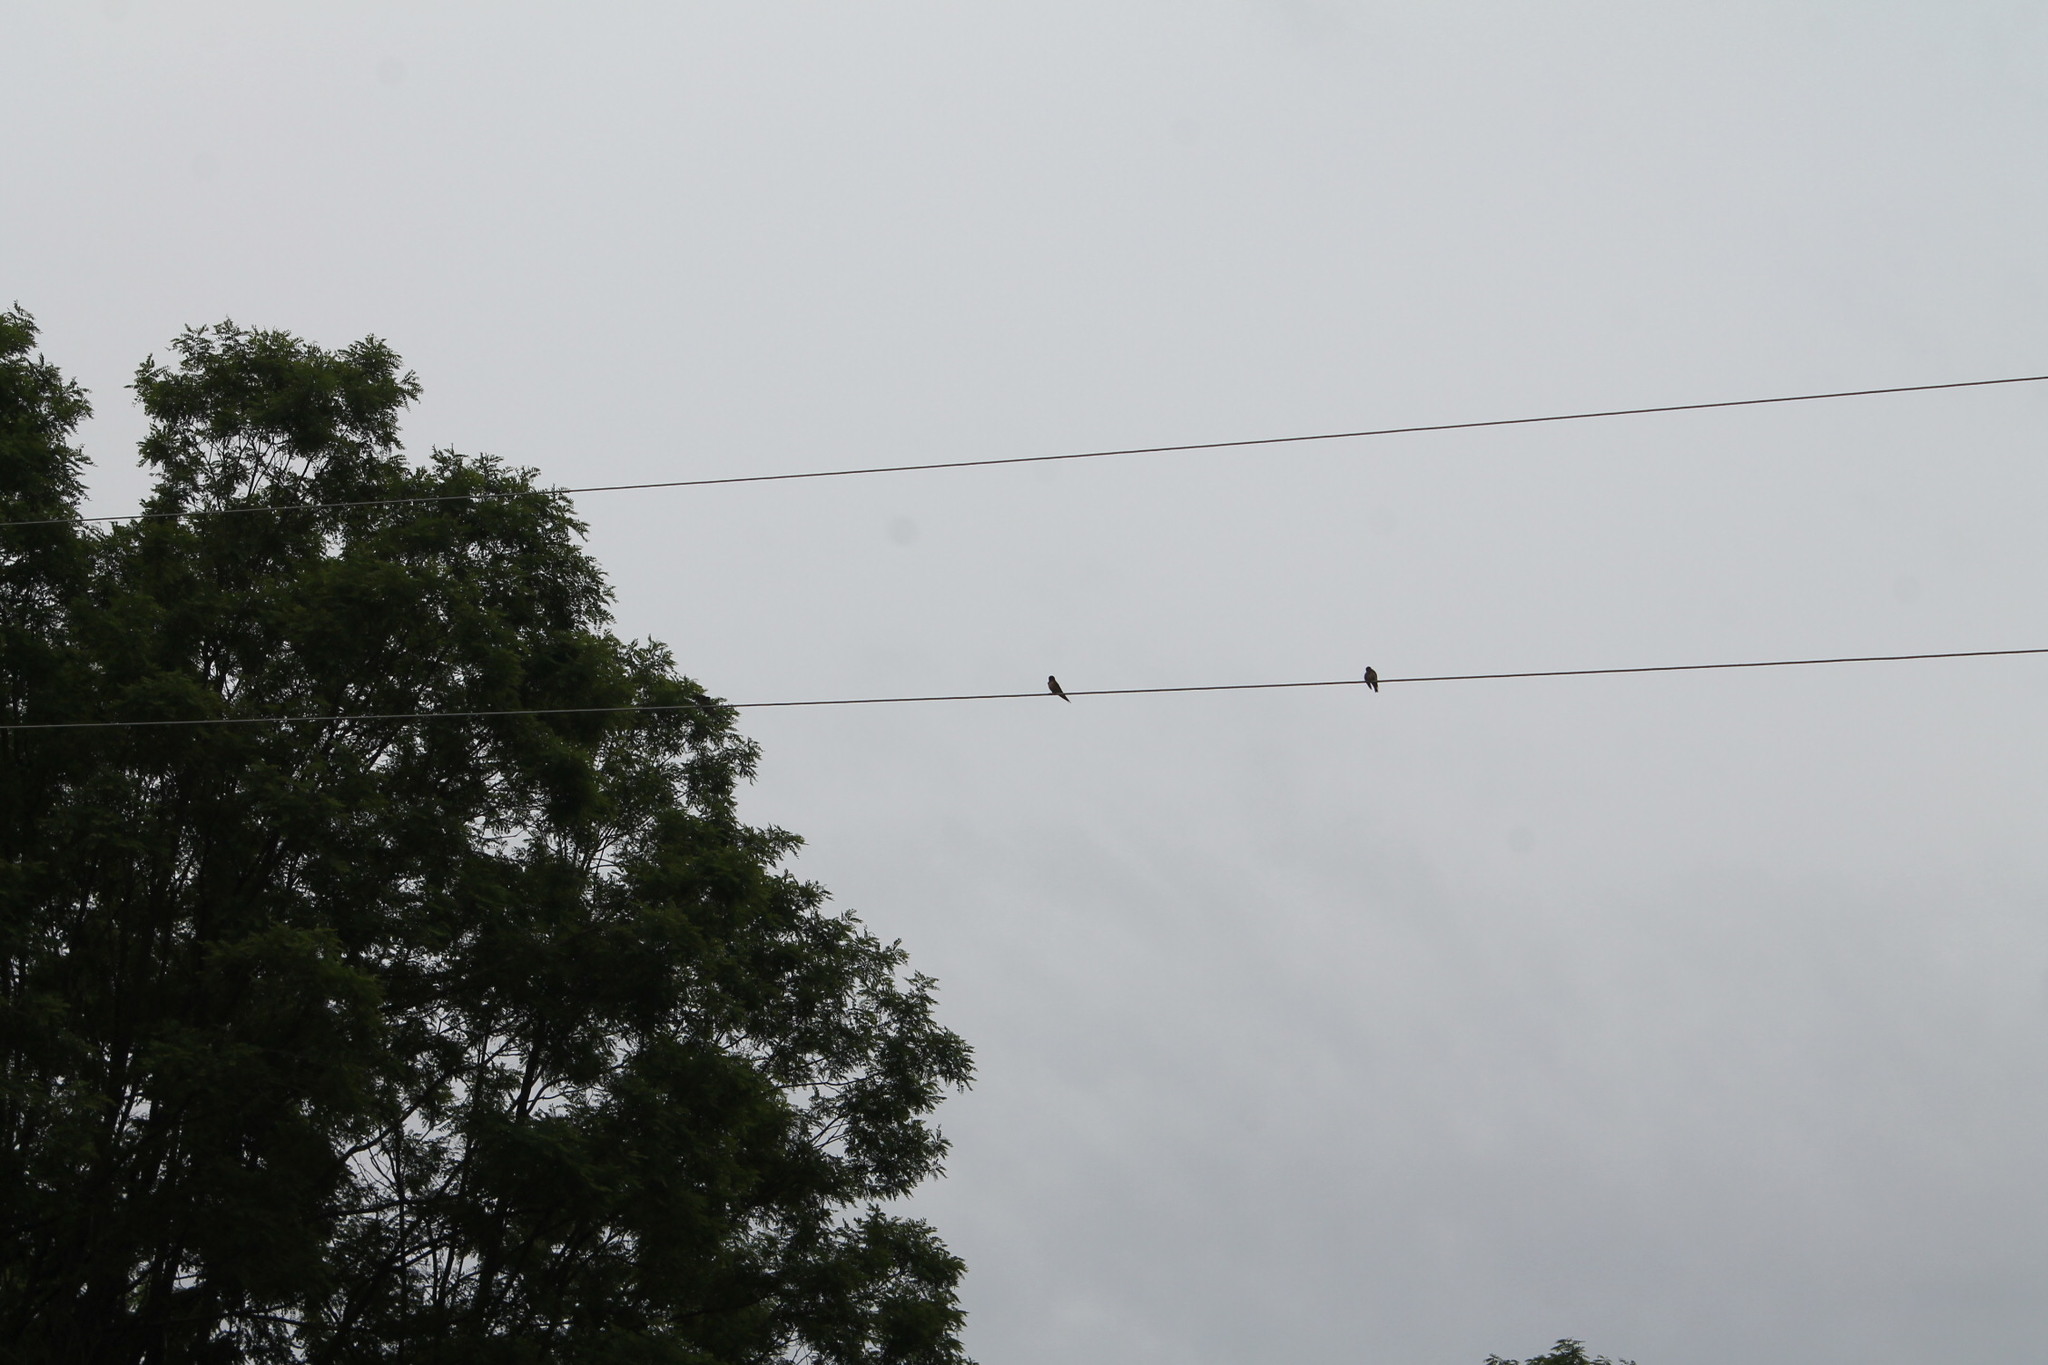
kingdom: Animalia
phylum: Chordata
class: Aves
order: Passeriformes
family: Hirundinidae
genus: Hirundo
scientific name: Hirundo rustica
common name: Barn swallow
